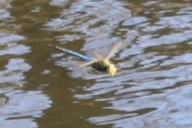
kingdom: Animalia
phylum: Arthropoda
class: Insecta
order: Odonata
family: Aeshnidae
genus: Anax
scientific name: Anax junius
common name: Common green darner
